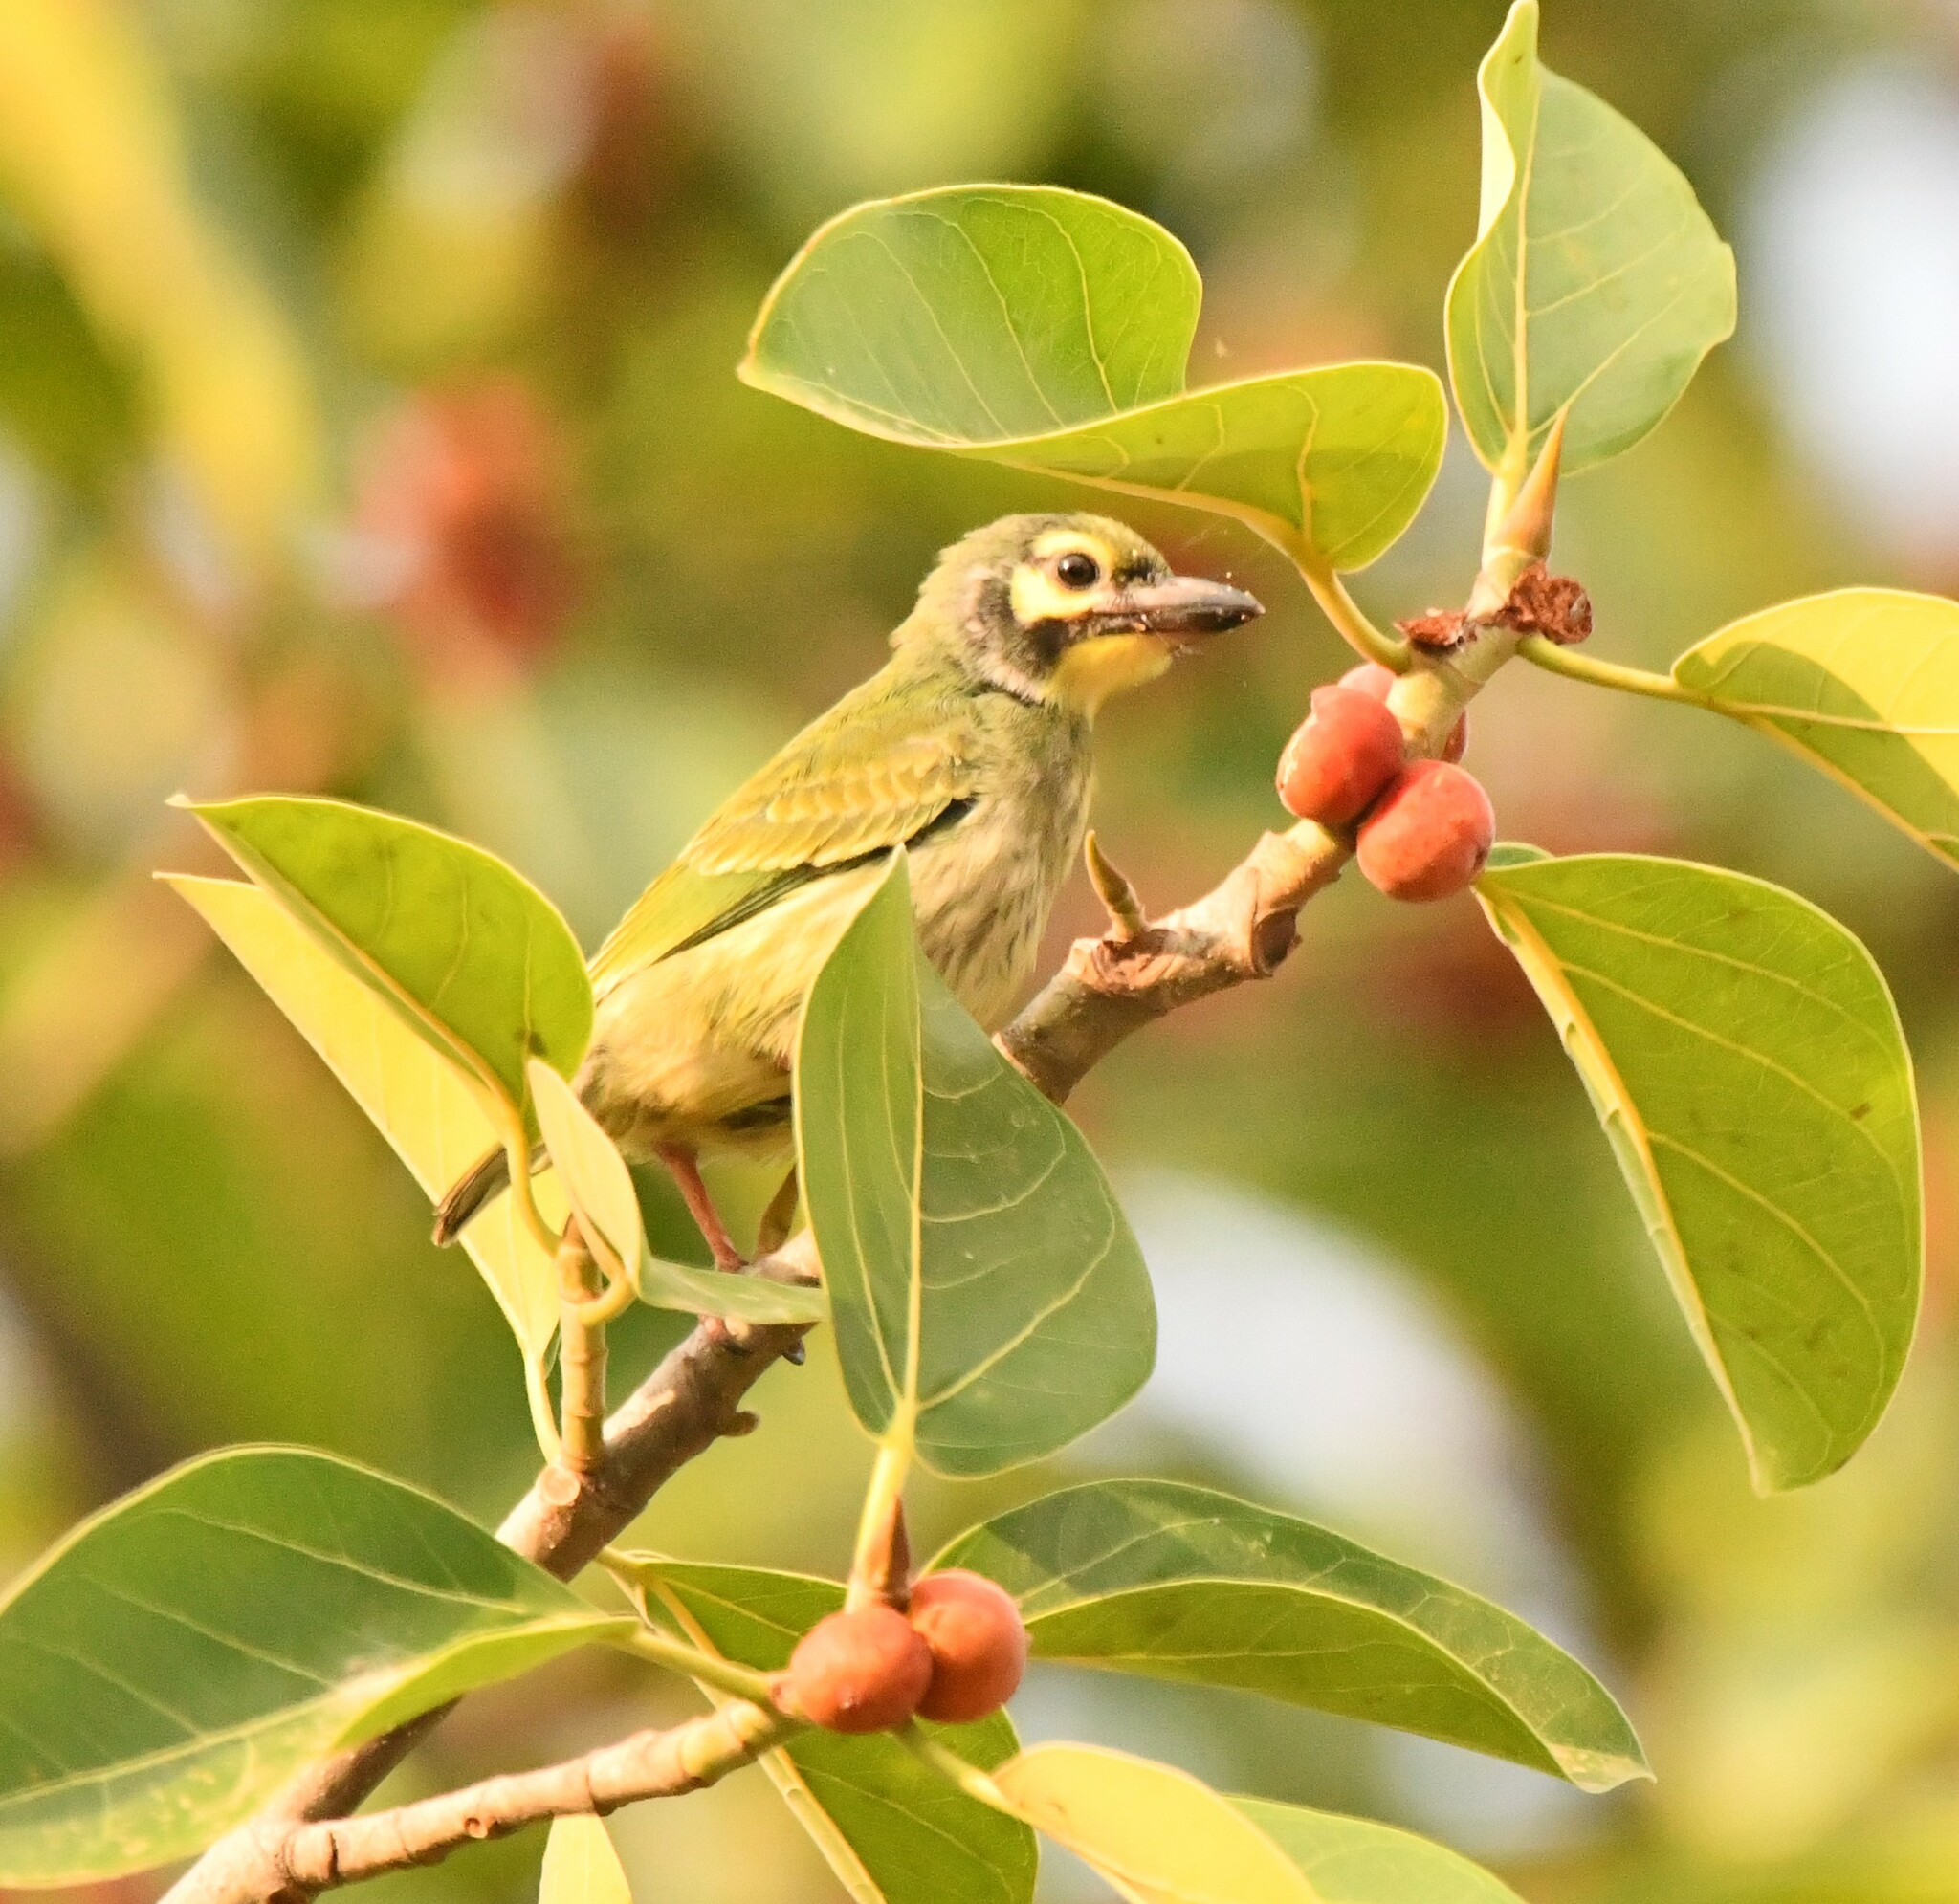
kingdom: Animalia
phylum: Chordata
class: Aves
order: Piciformes
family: Megalaimidae
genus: Psilopogon
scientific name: Psilopogon haemacephalus
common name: Coppersmith barbet
